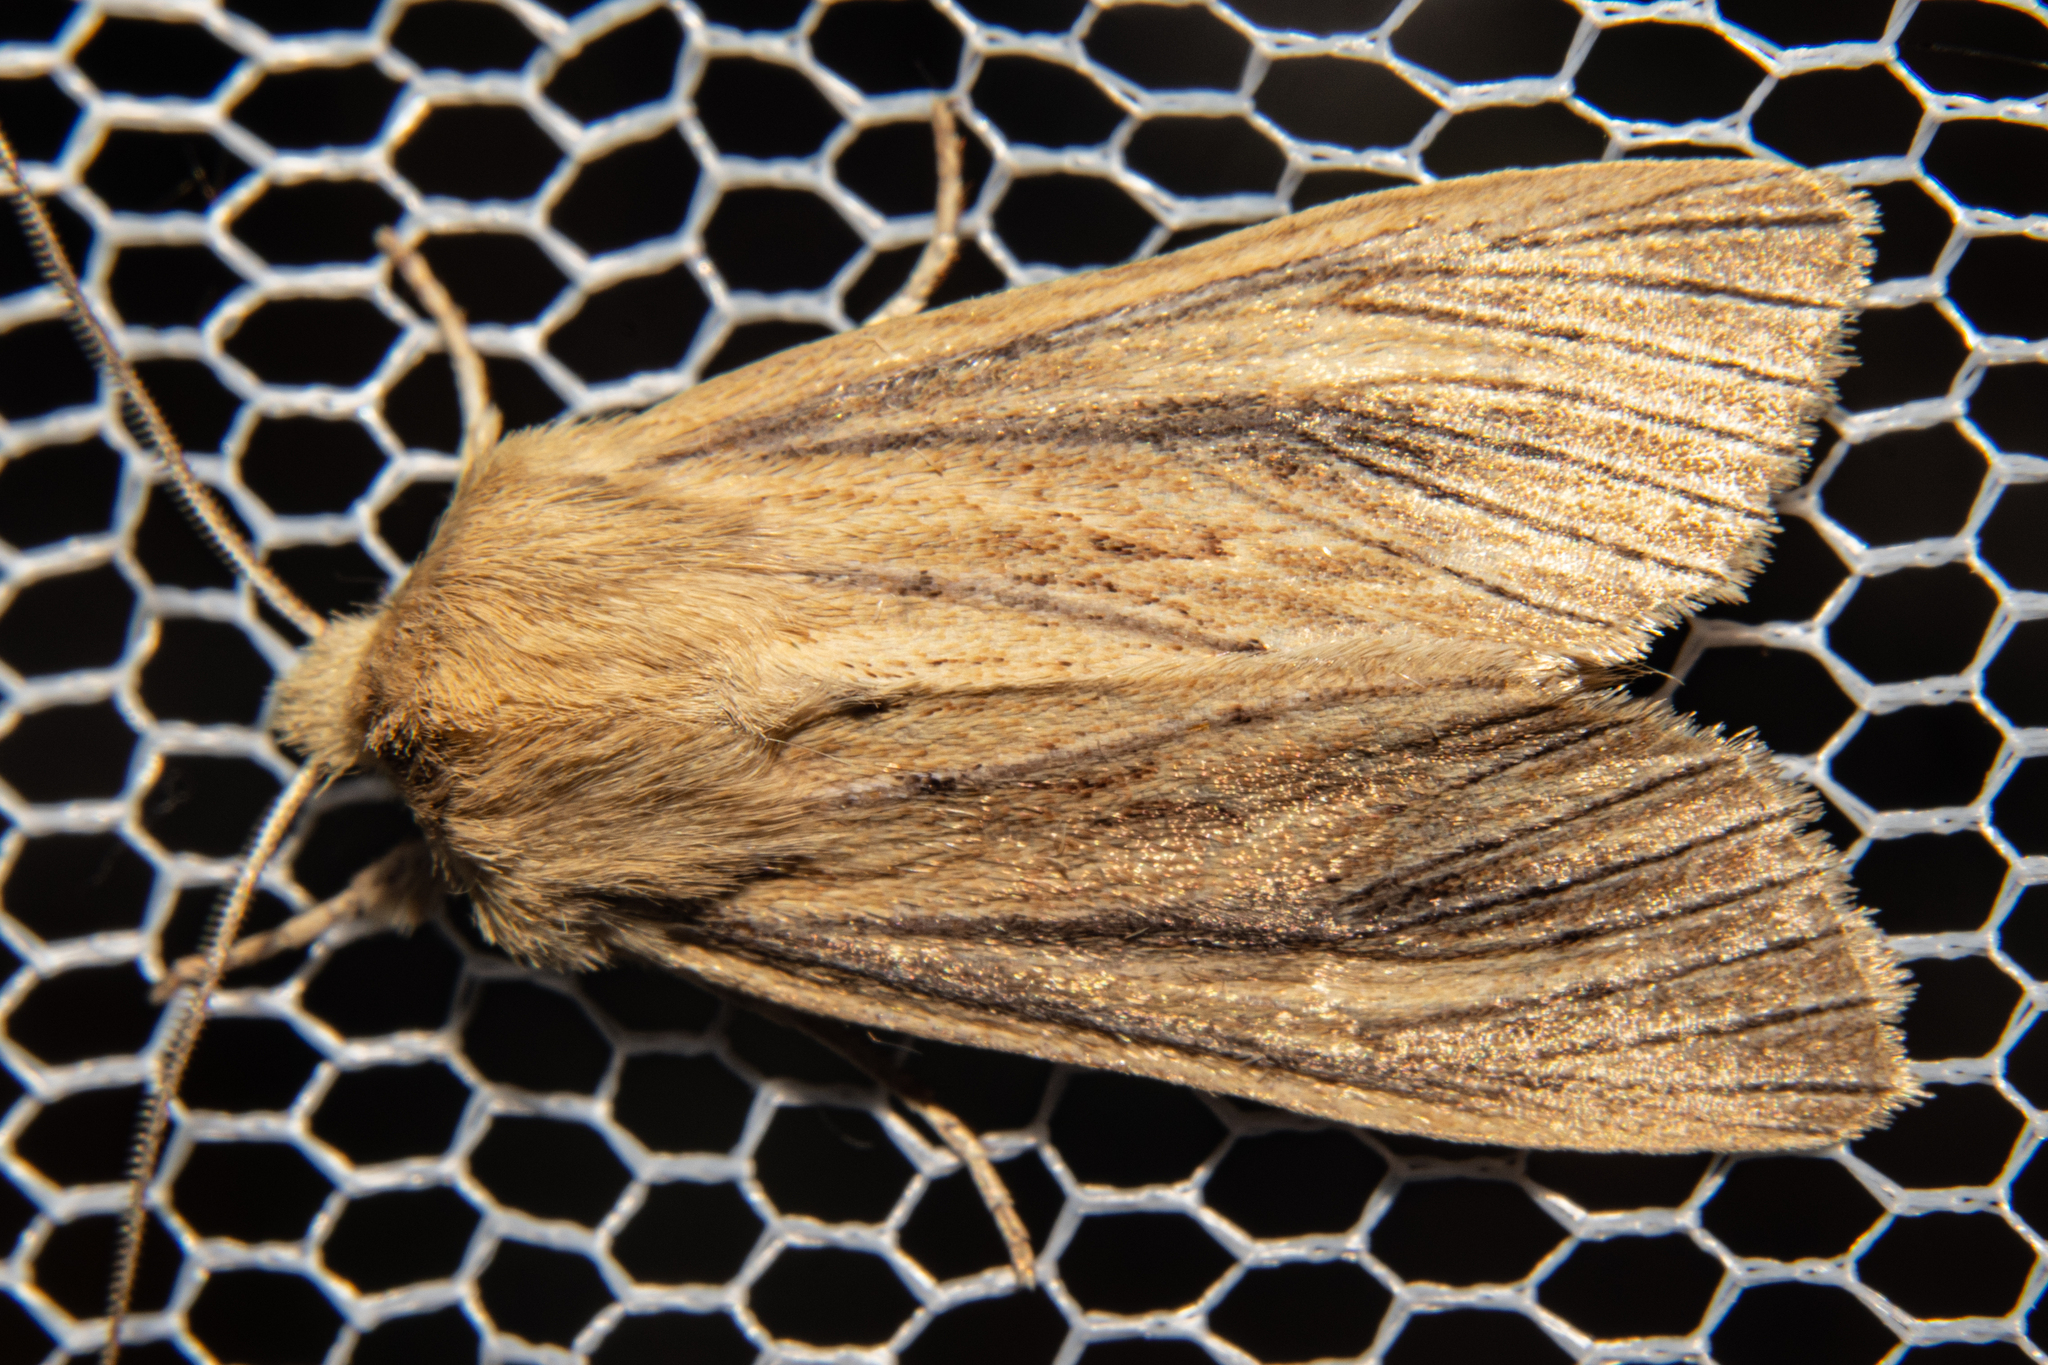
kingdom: Animalia
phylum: Arthropoda
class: Insecta
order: Lepidoptera
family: Noctuidae
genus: Ichneutica
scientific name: Ichneutica arotis
